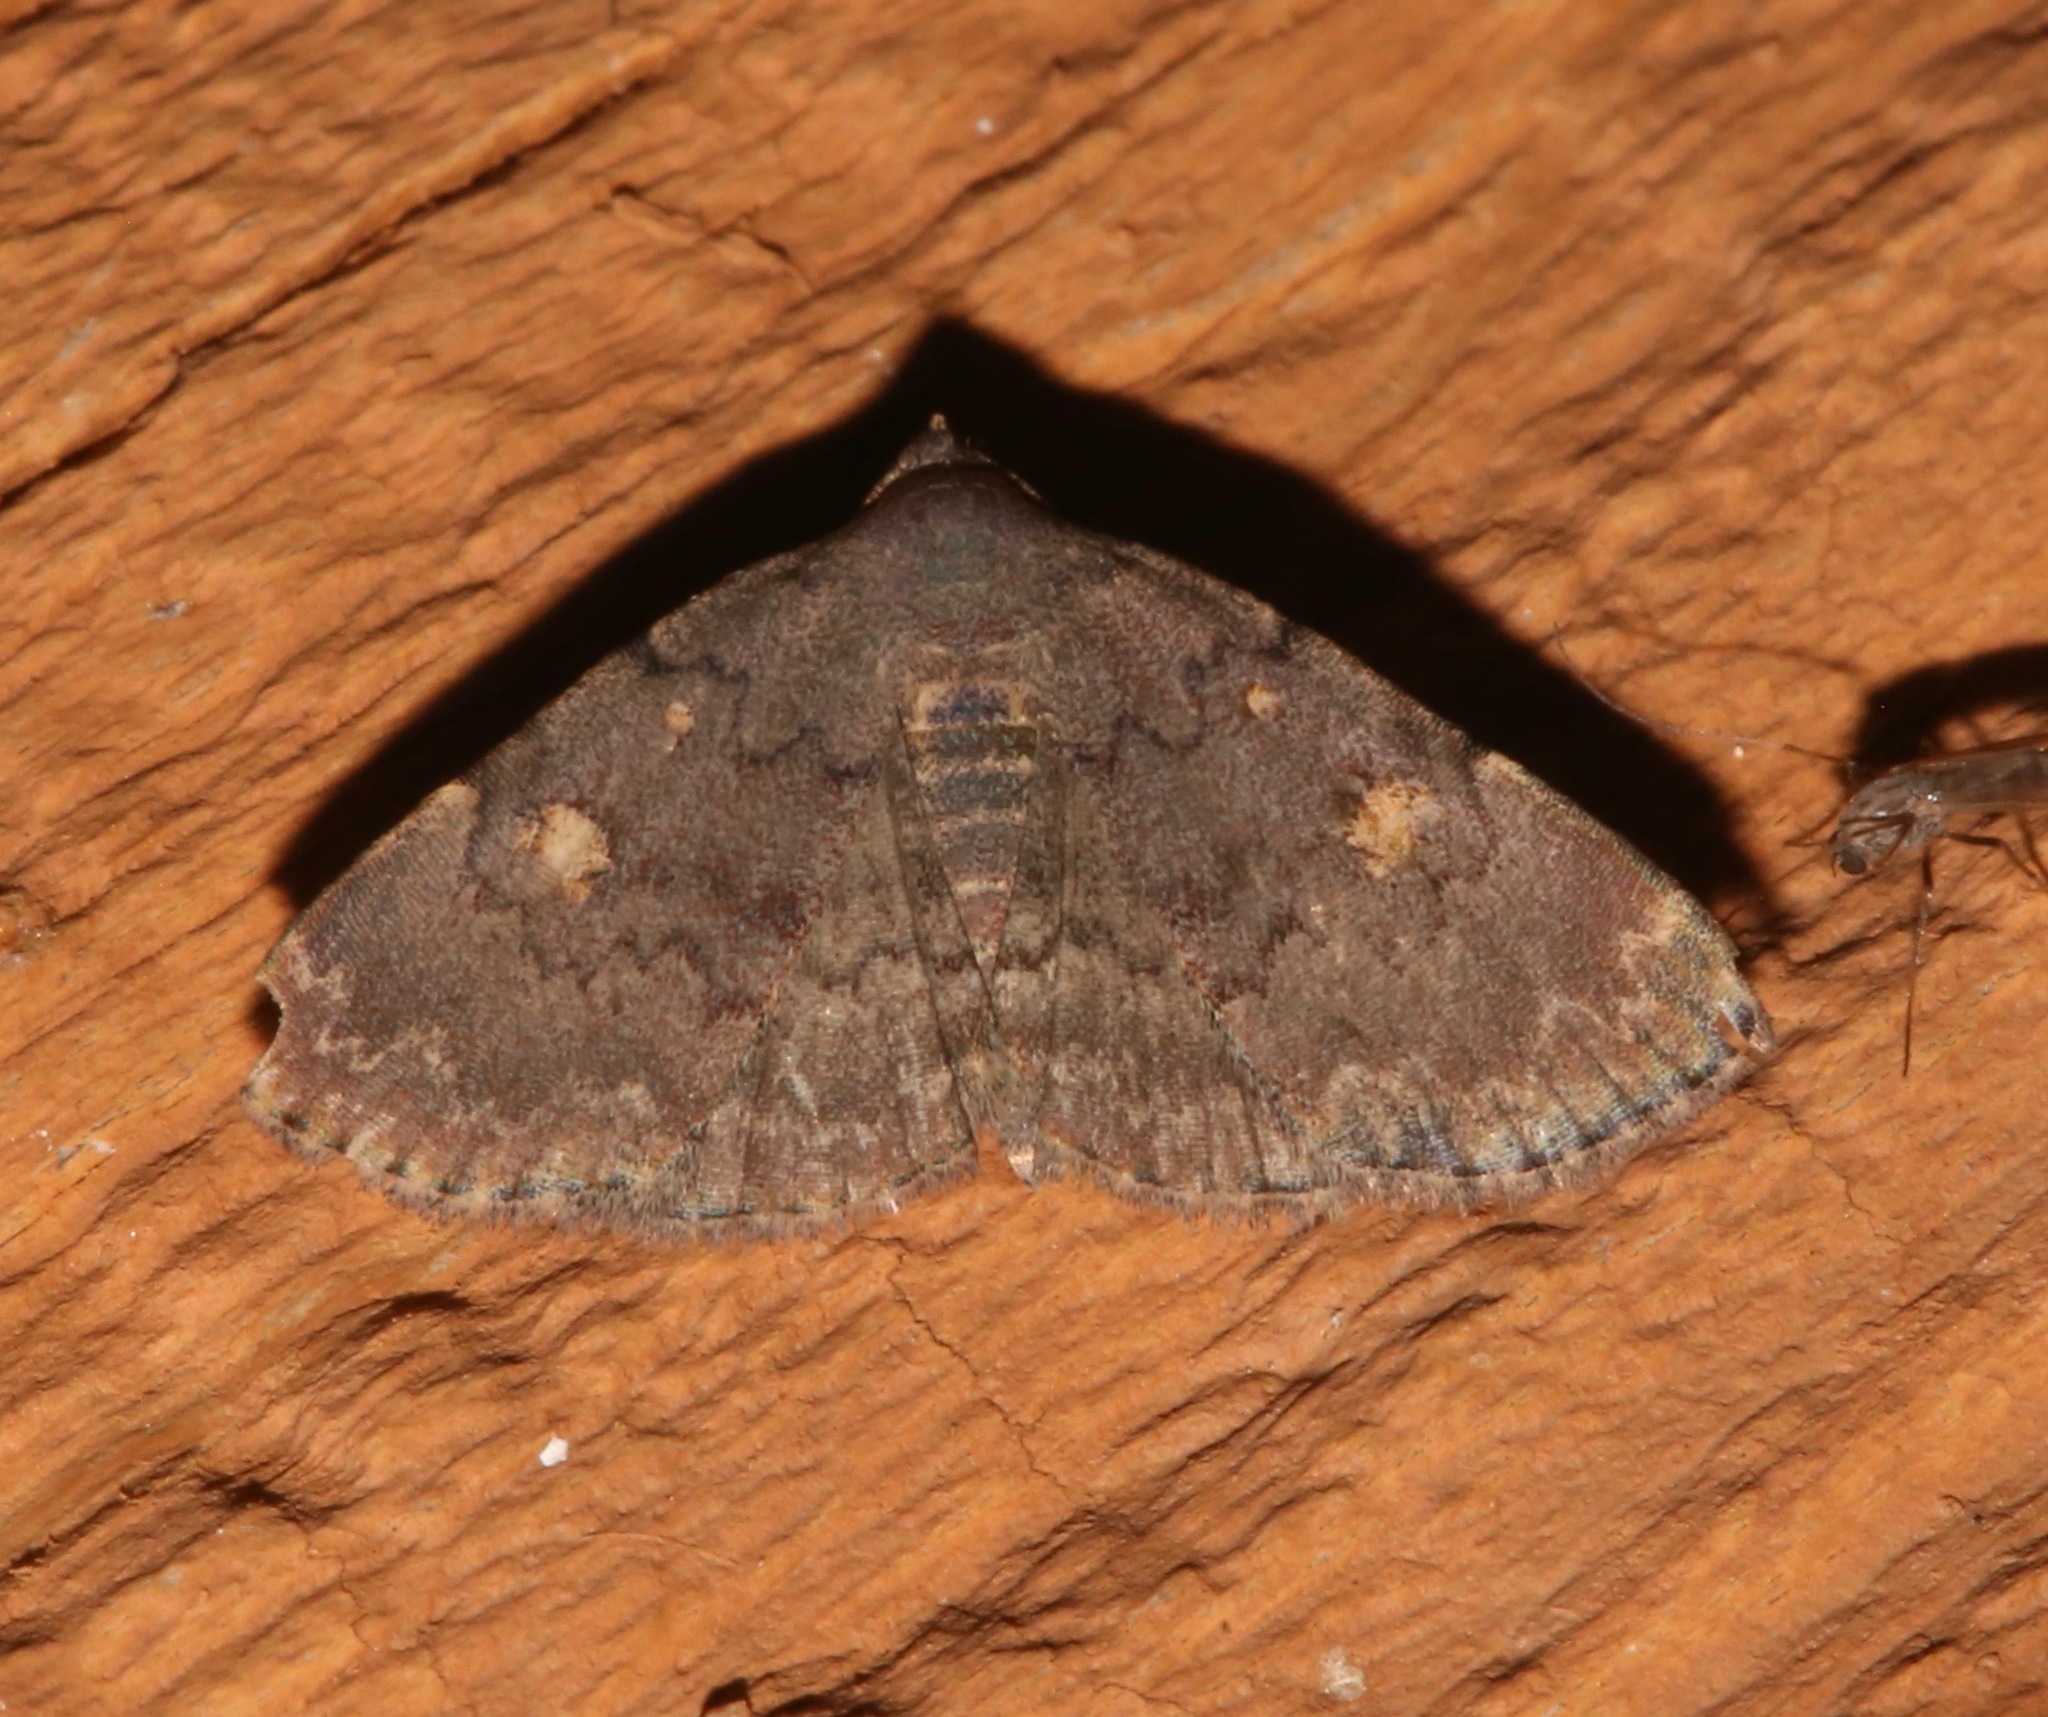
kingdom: Animalia
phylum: Arthropoda
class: Insecta
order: Lepidoptera
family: Erebidae
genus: Idia
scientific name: Idia aemula
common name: Common idia moth
